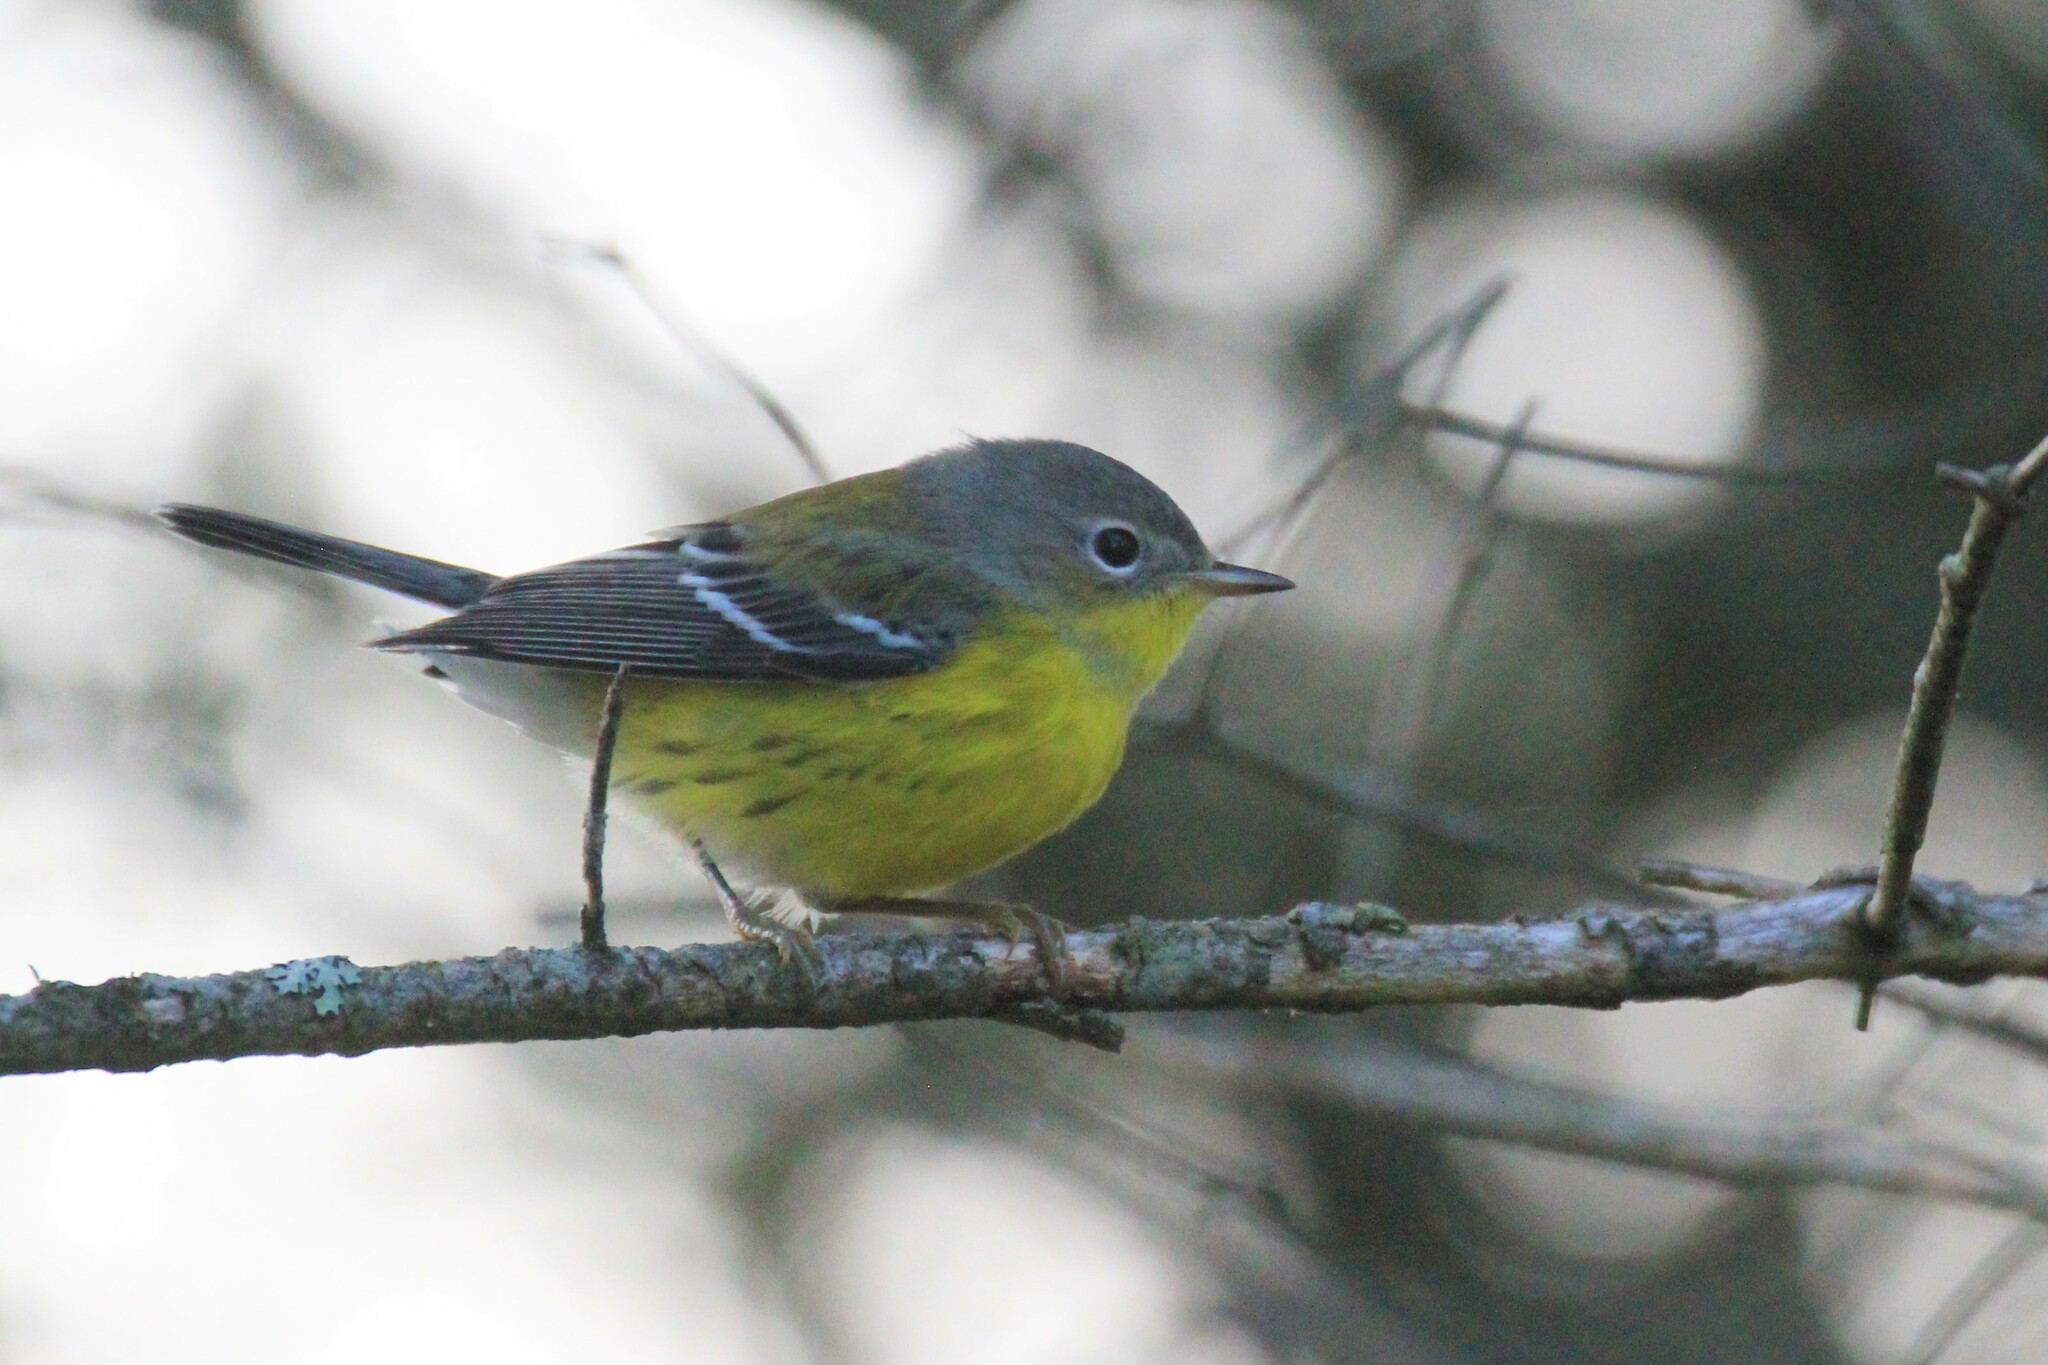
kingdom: Animalia
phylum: Chordata
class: Aves
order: Passeriformes
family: Parulidae
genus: Setophaga
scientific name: Setophaga magnolia
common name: Magnolia warbler
